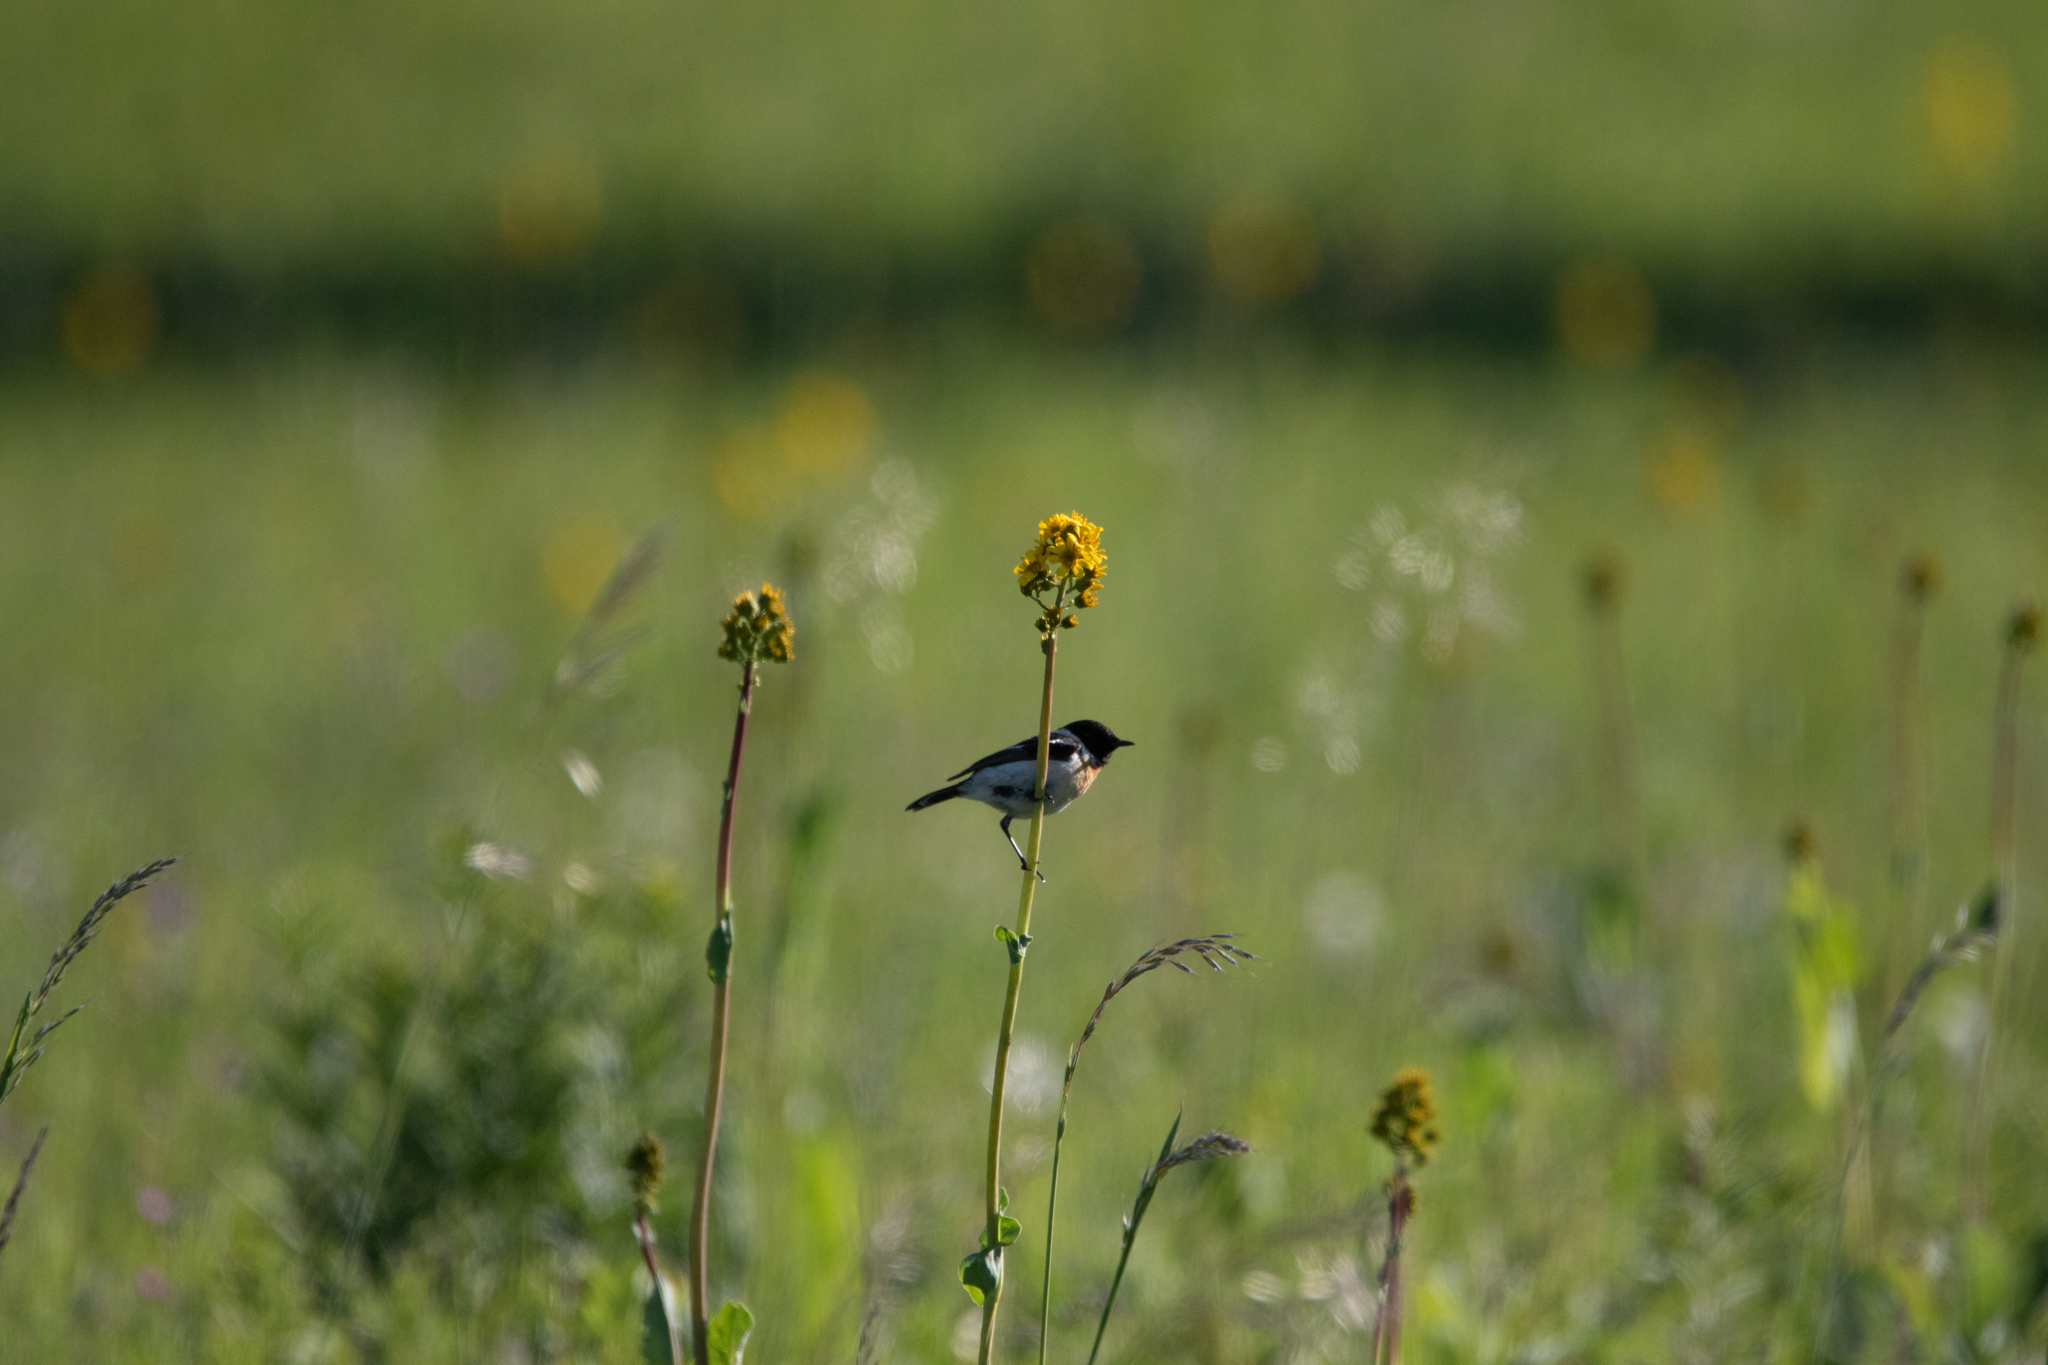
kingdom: Animalia
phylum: Chordata
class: Aves
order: Passeriformes
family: Muscicapidae
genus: Saxicola
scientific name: Saxicola maurus
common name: Siberian stonechat
